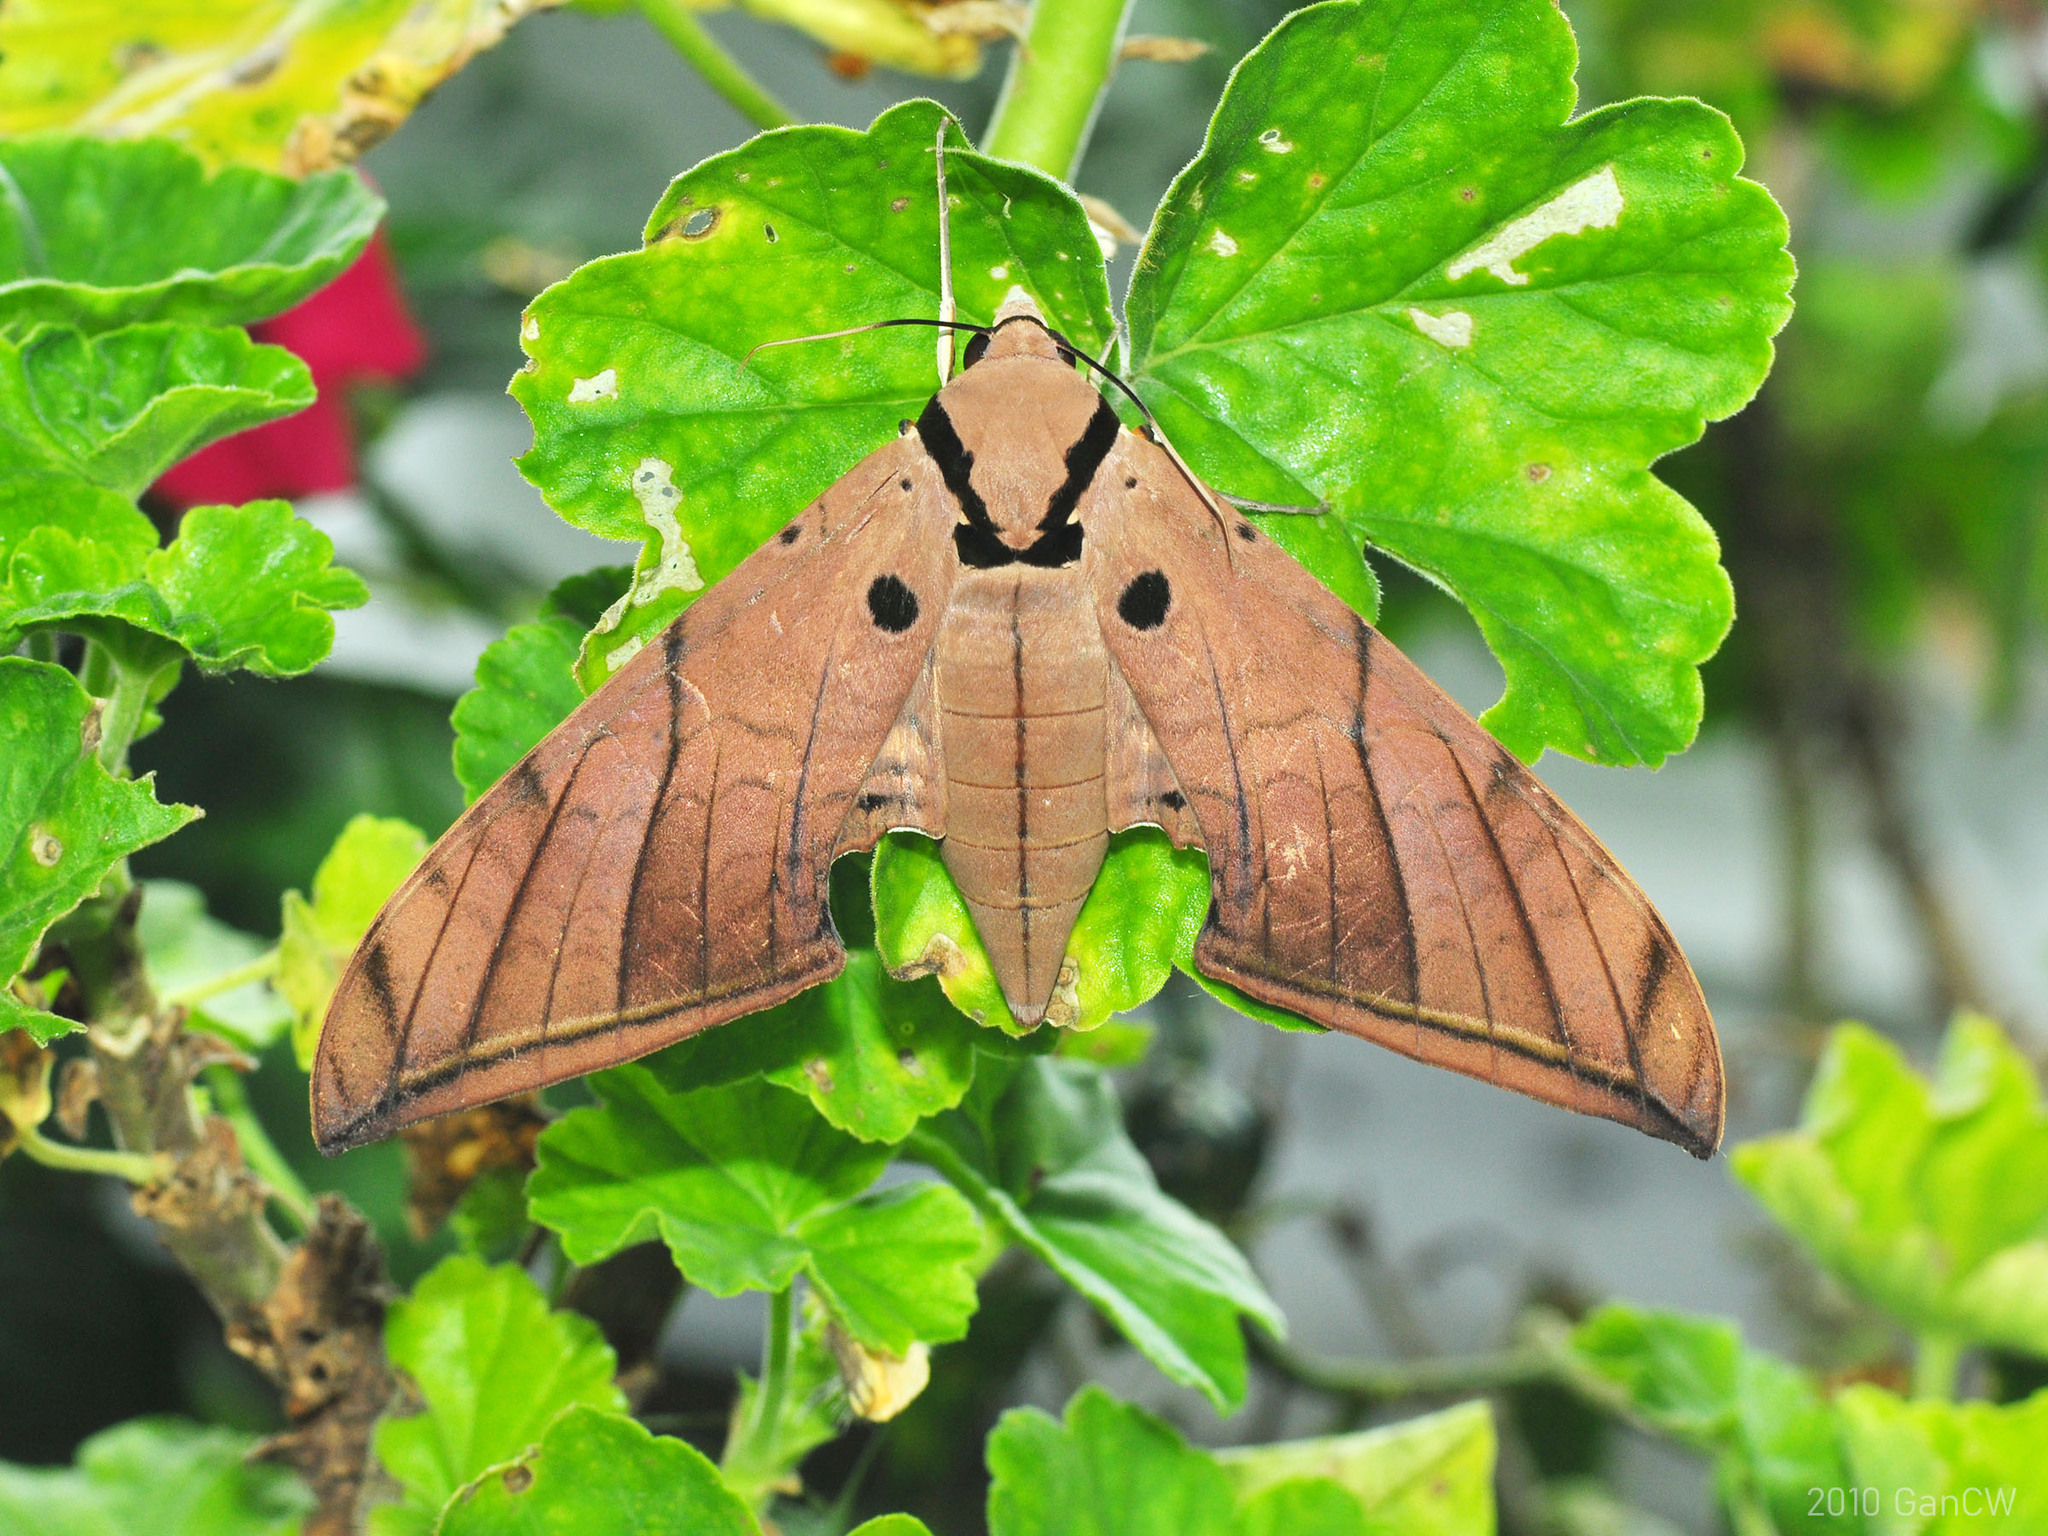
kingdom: Animalia
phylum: Arthropoda
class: Insecta
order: Lepidoptera
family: Sphingidae
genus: Ambulyx
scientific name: Ambulyx pryeri
